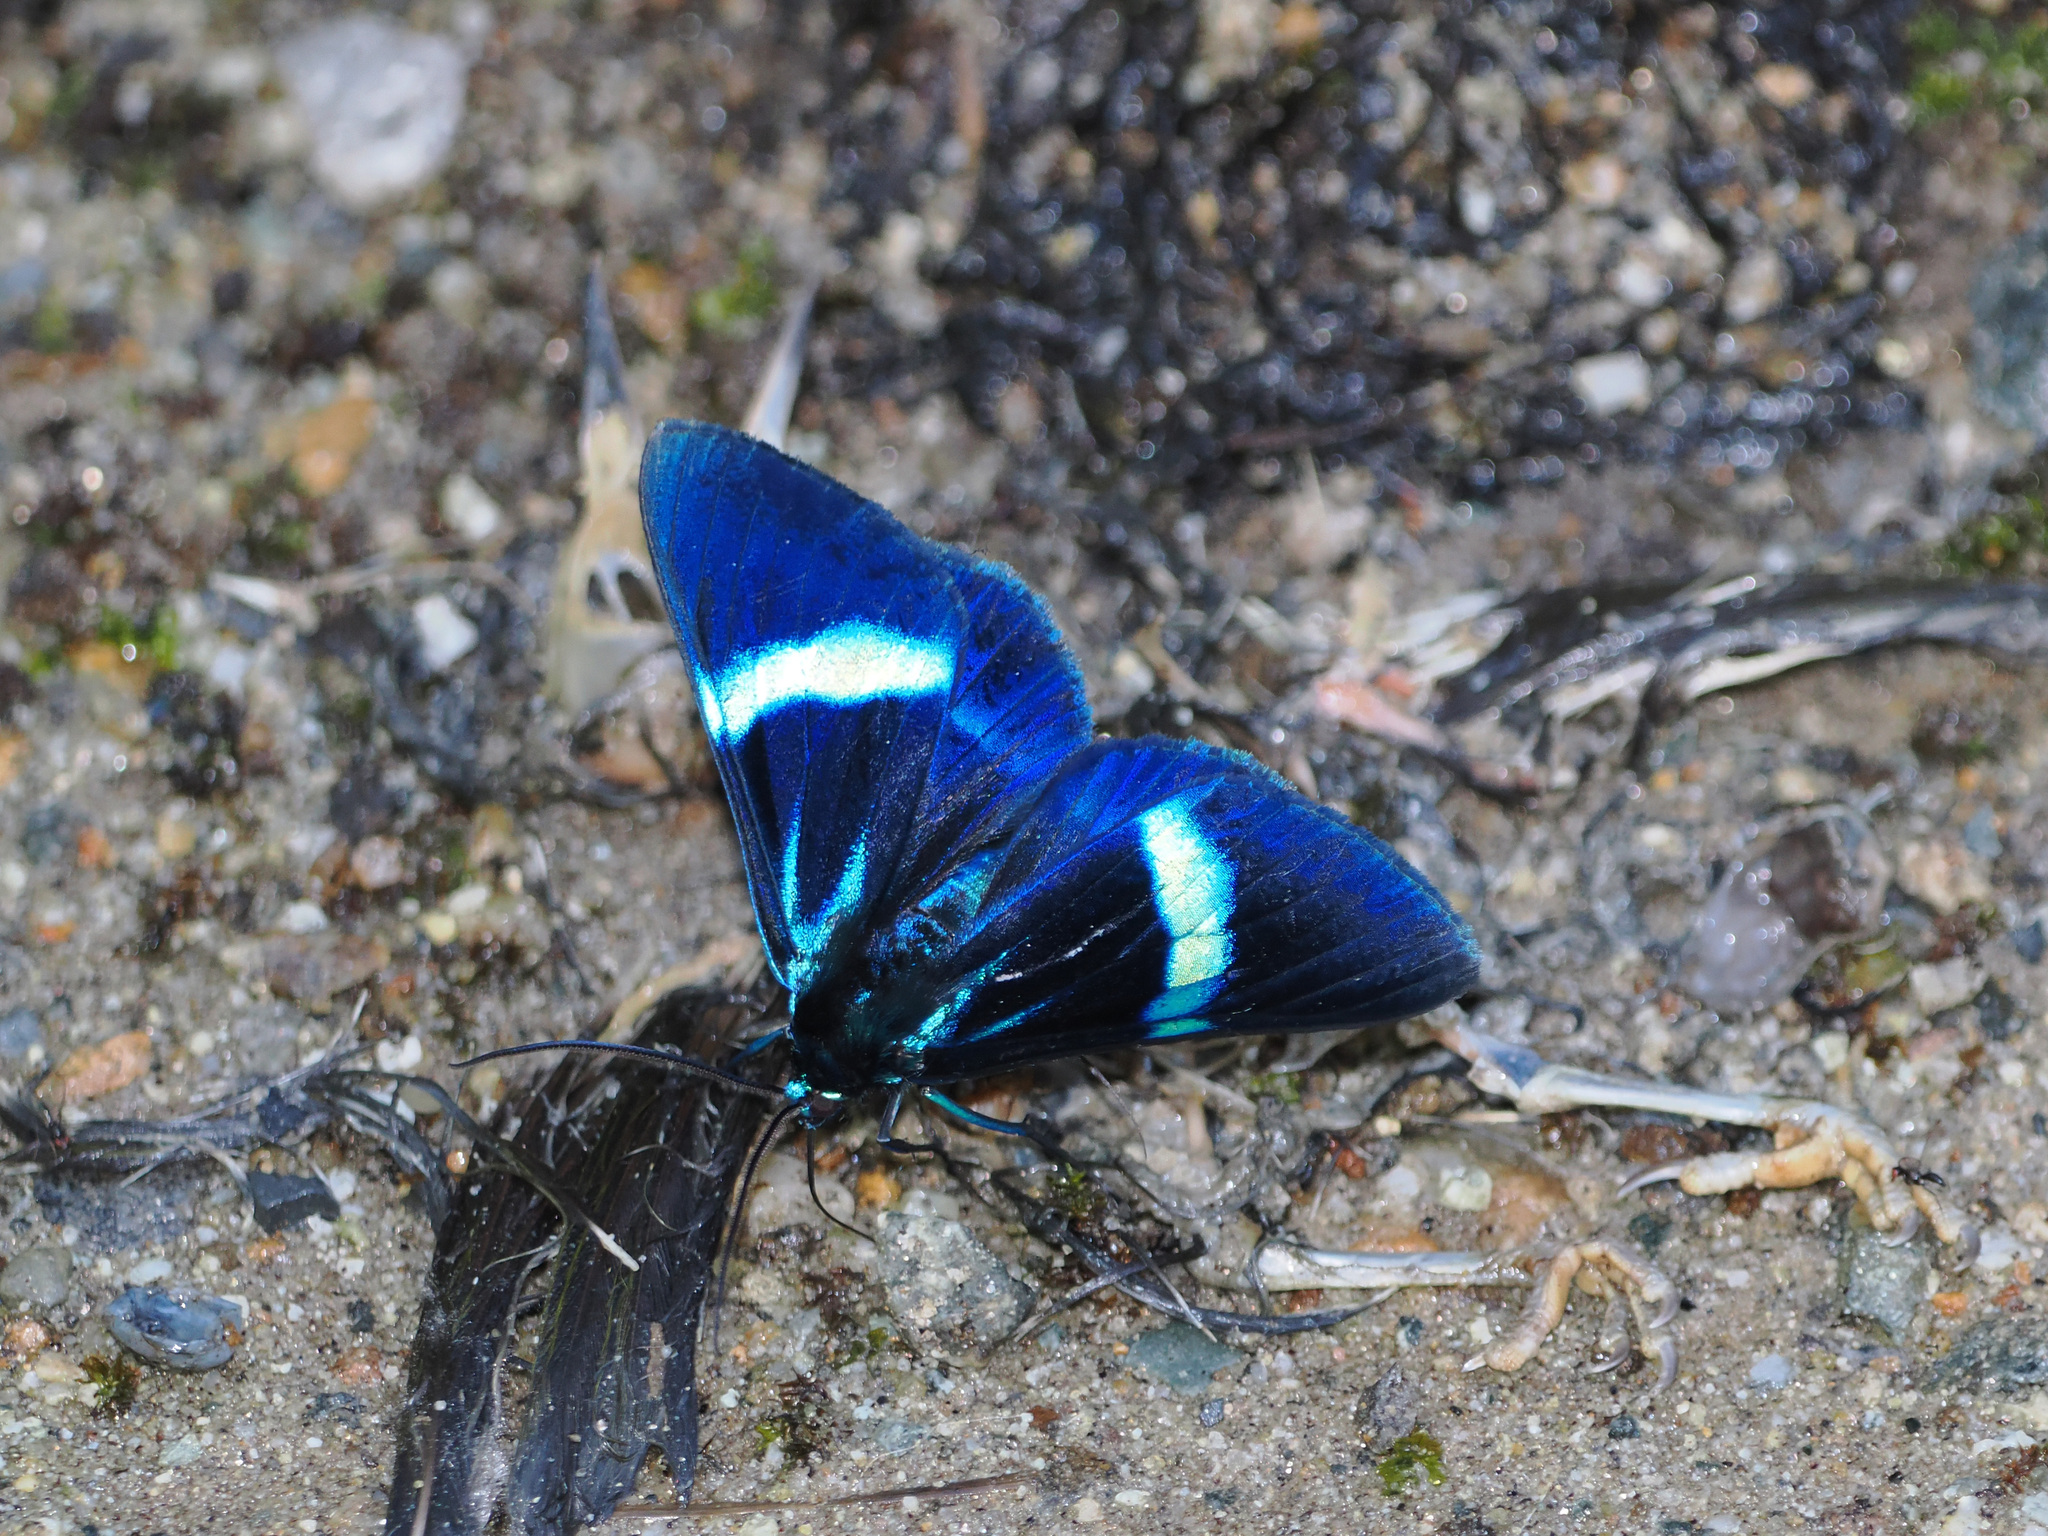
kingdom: Animalia
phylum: Arthropoda
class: Insecta
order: Lepidoptera
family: Geometridae
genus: Milionia
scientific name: Milionia
